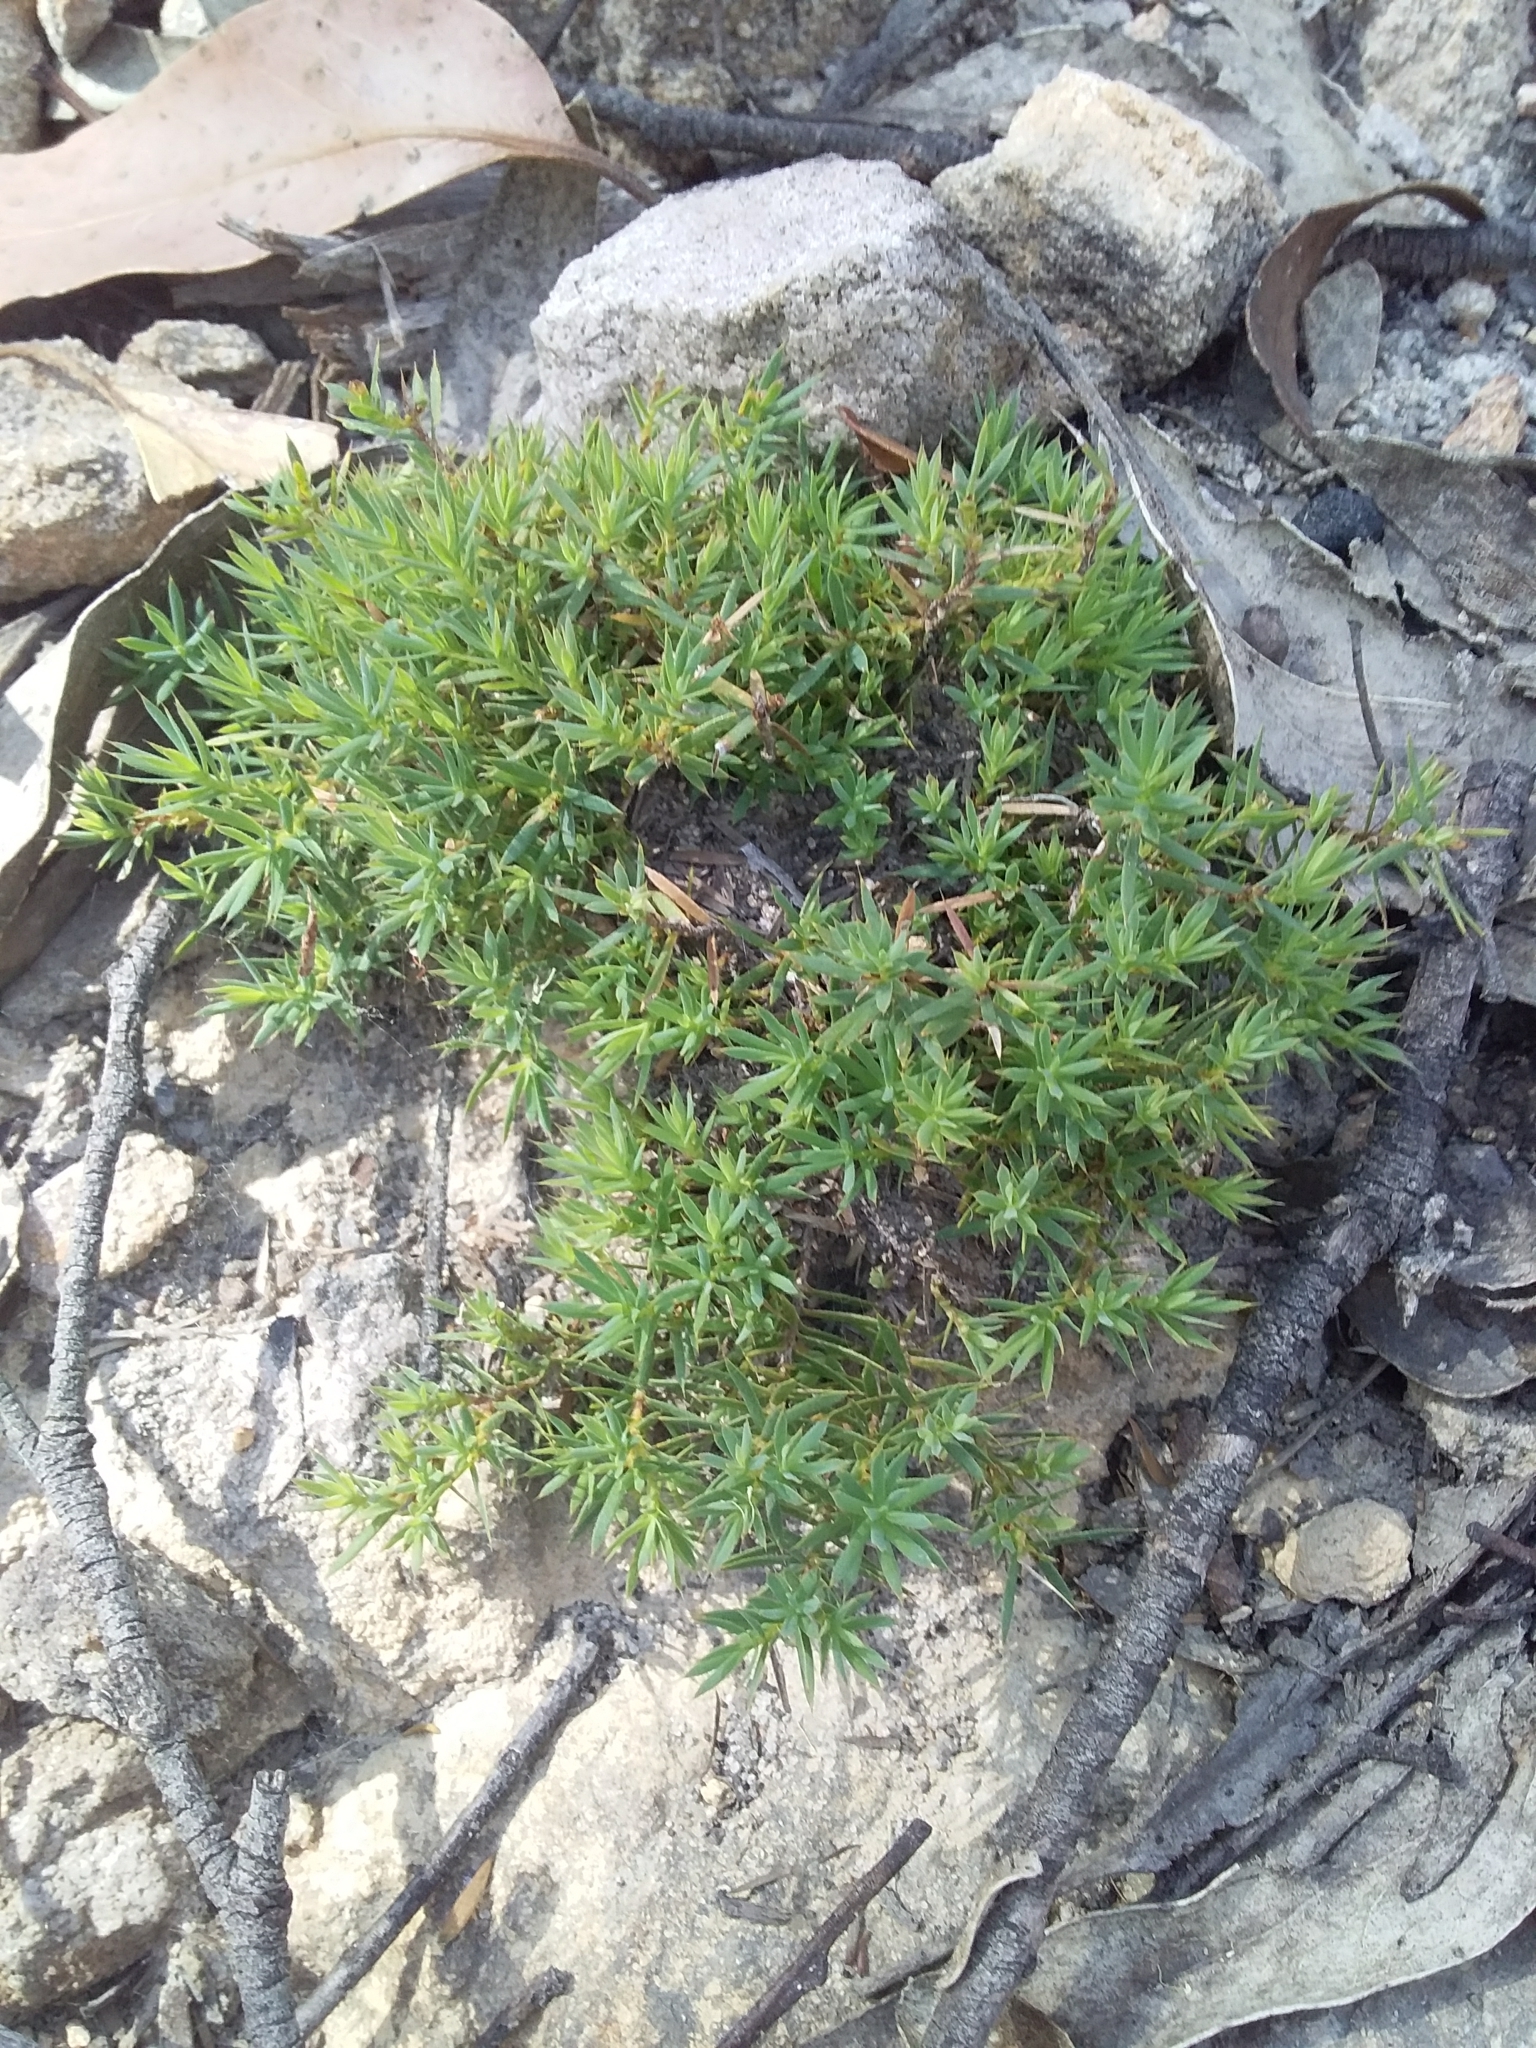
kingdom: Plantae
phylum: Tracheophyta
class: Magnoliopsida
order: Ericales
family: Ericaceae
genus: Styphelia
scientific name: Styphelia humifusa
